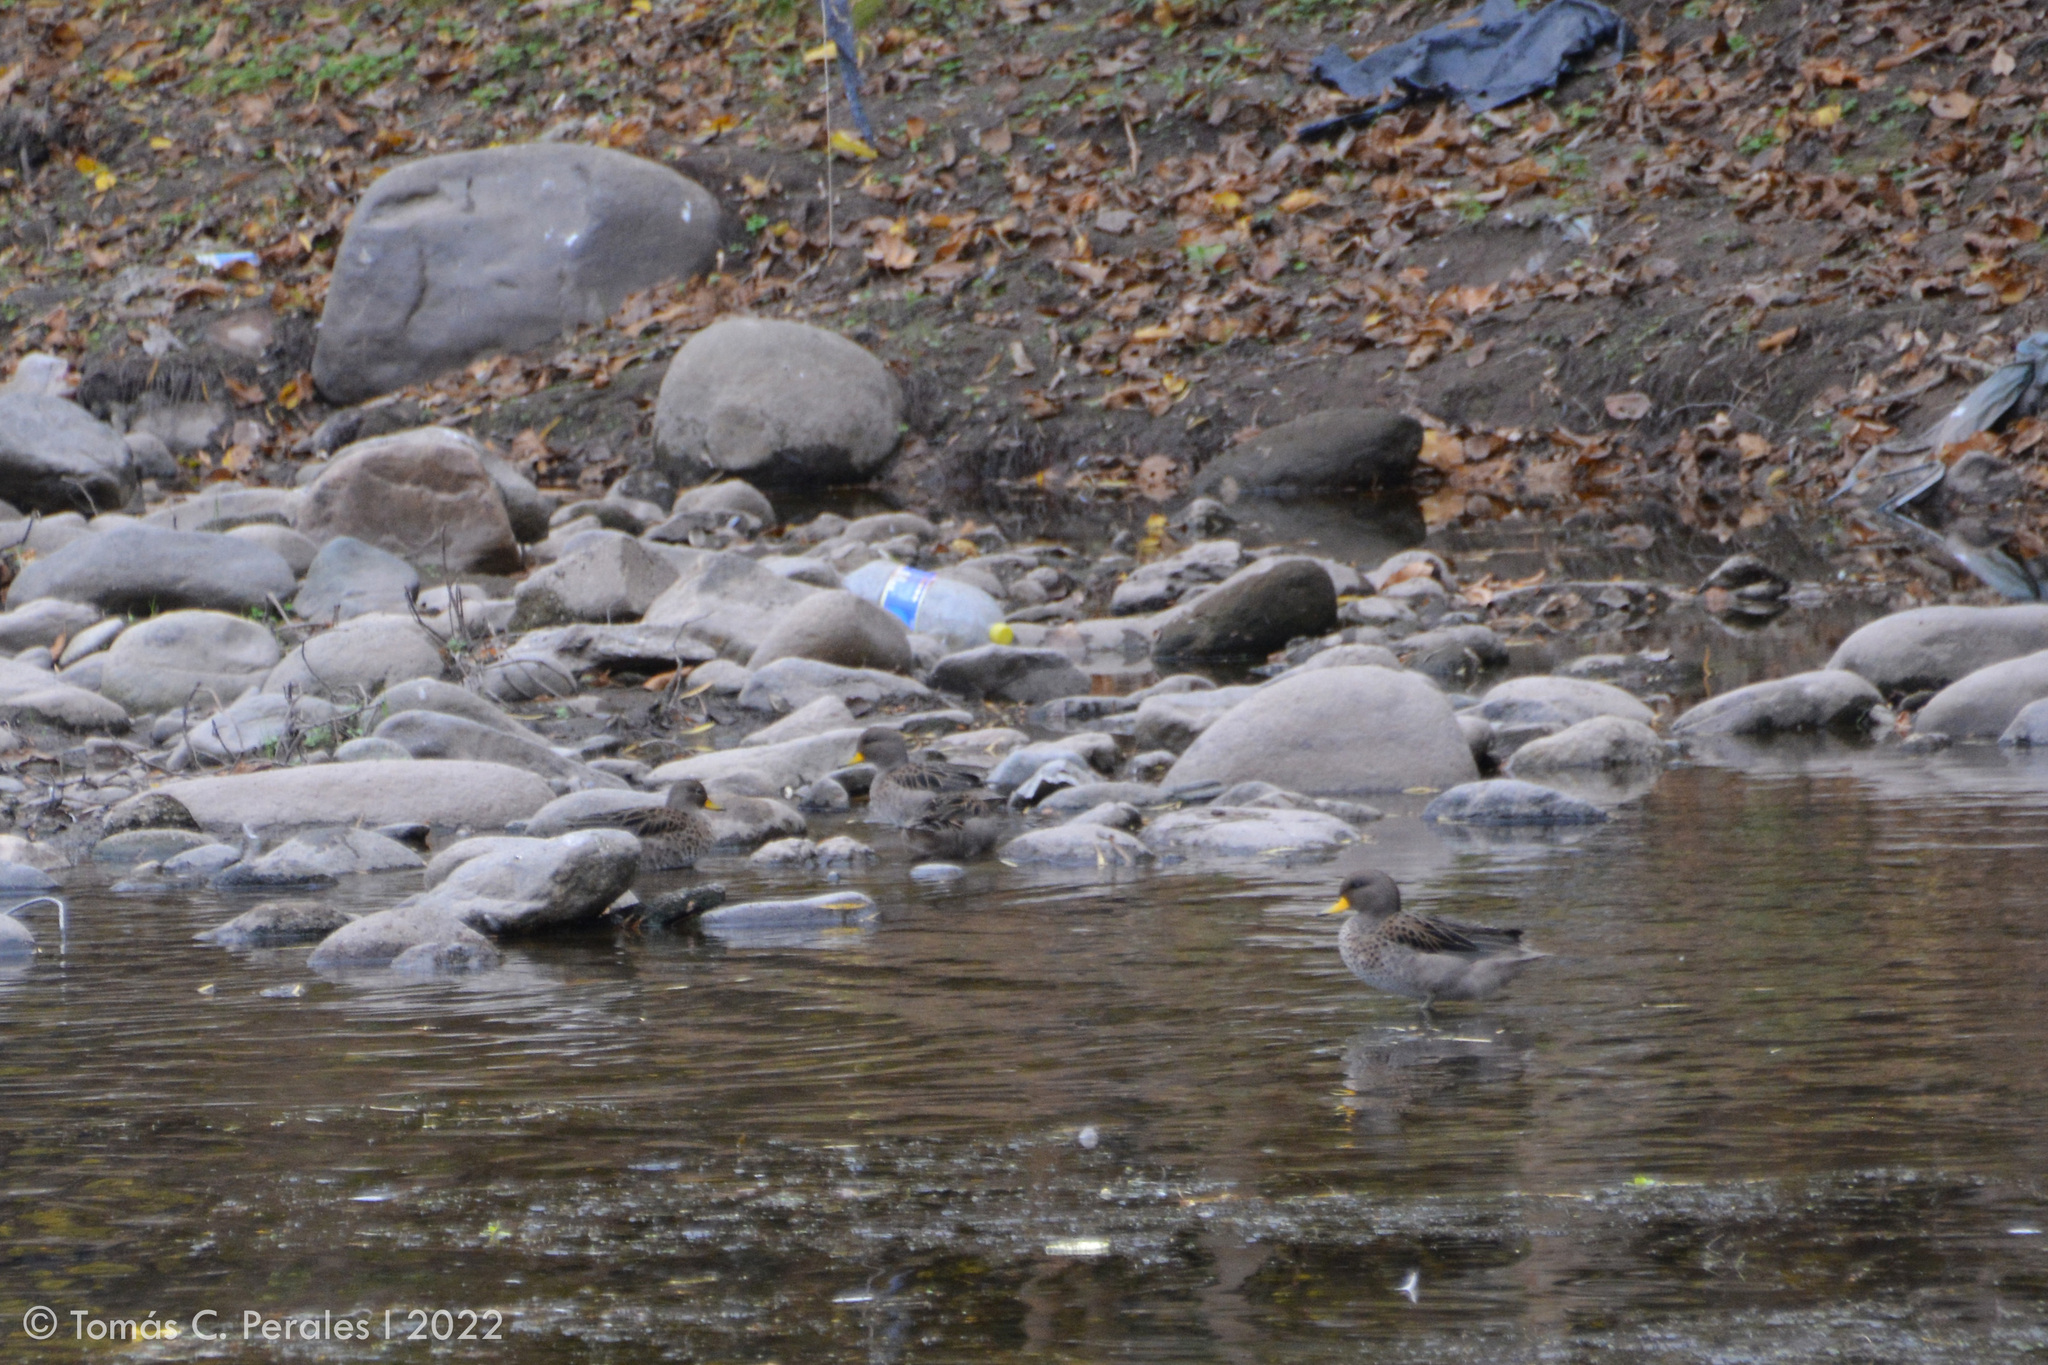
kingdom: Animalia
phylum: Chordata
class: Aves
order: Anseriformes
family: Anatidae
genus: Anas
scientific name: Anas flavirostris
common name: Yellow-billed teal
